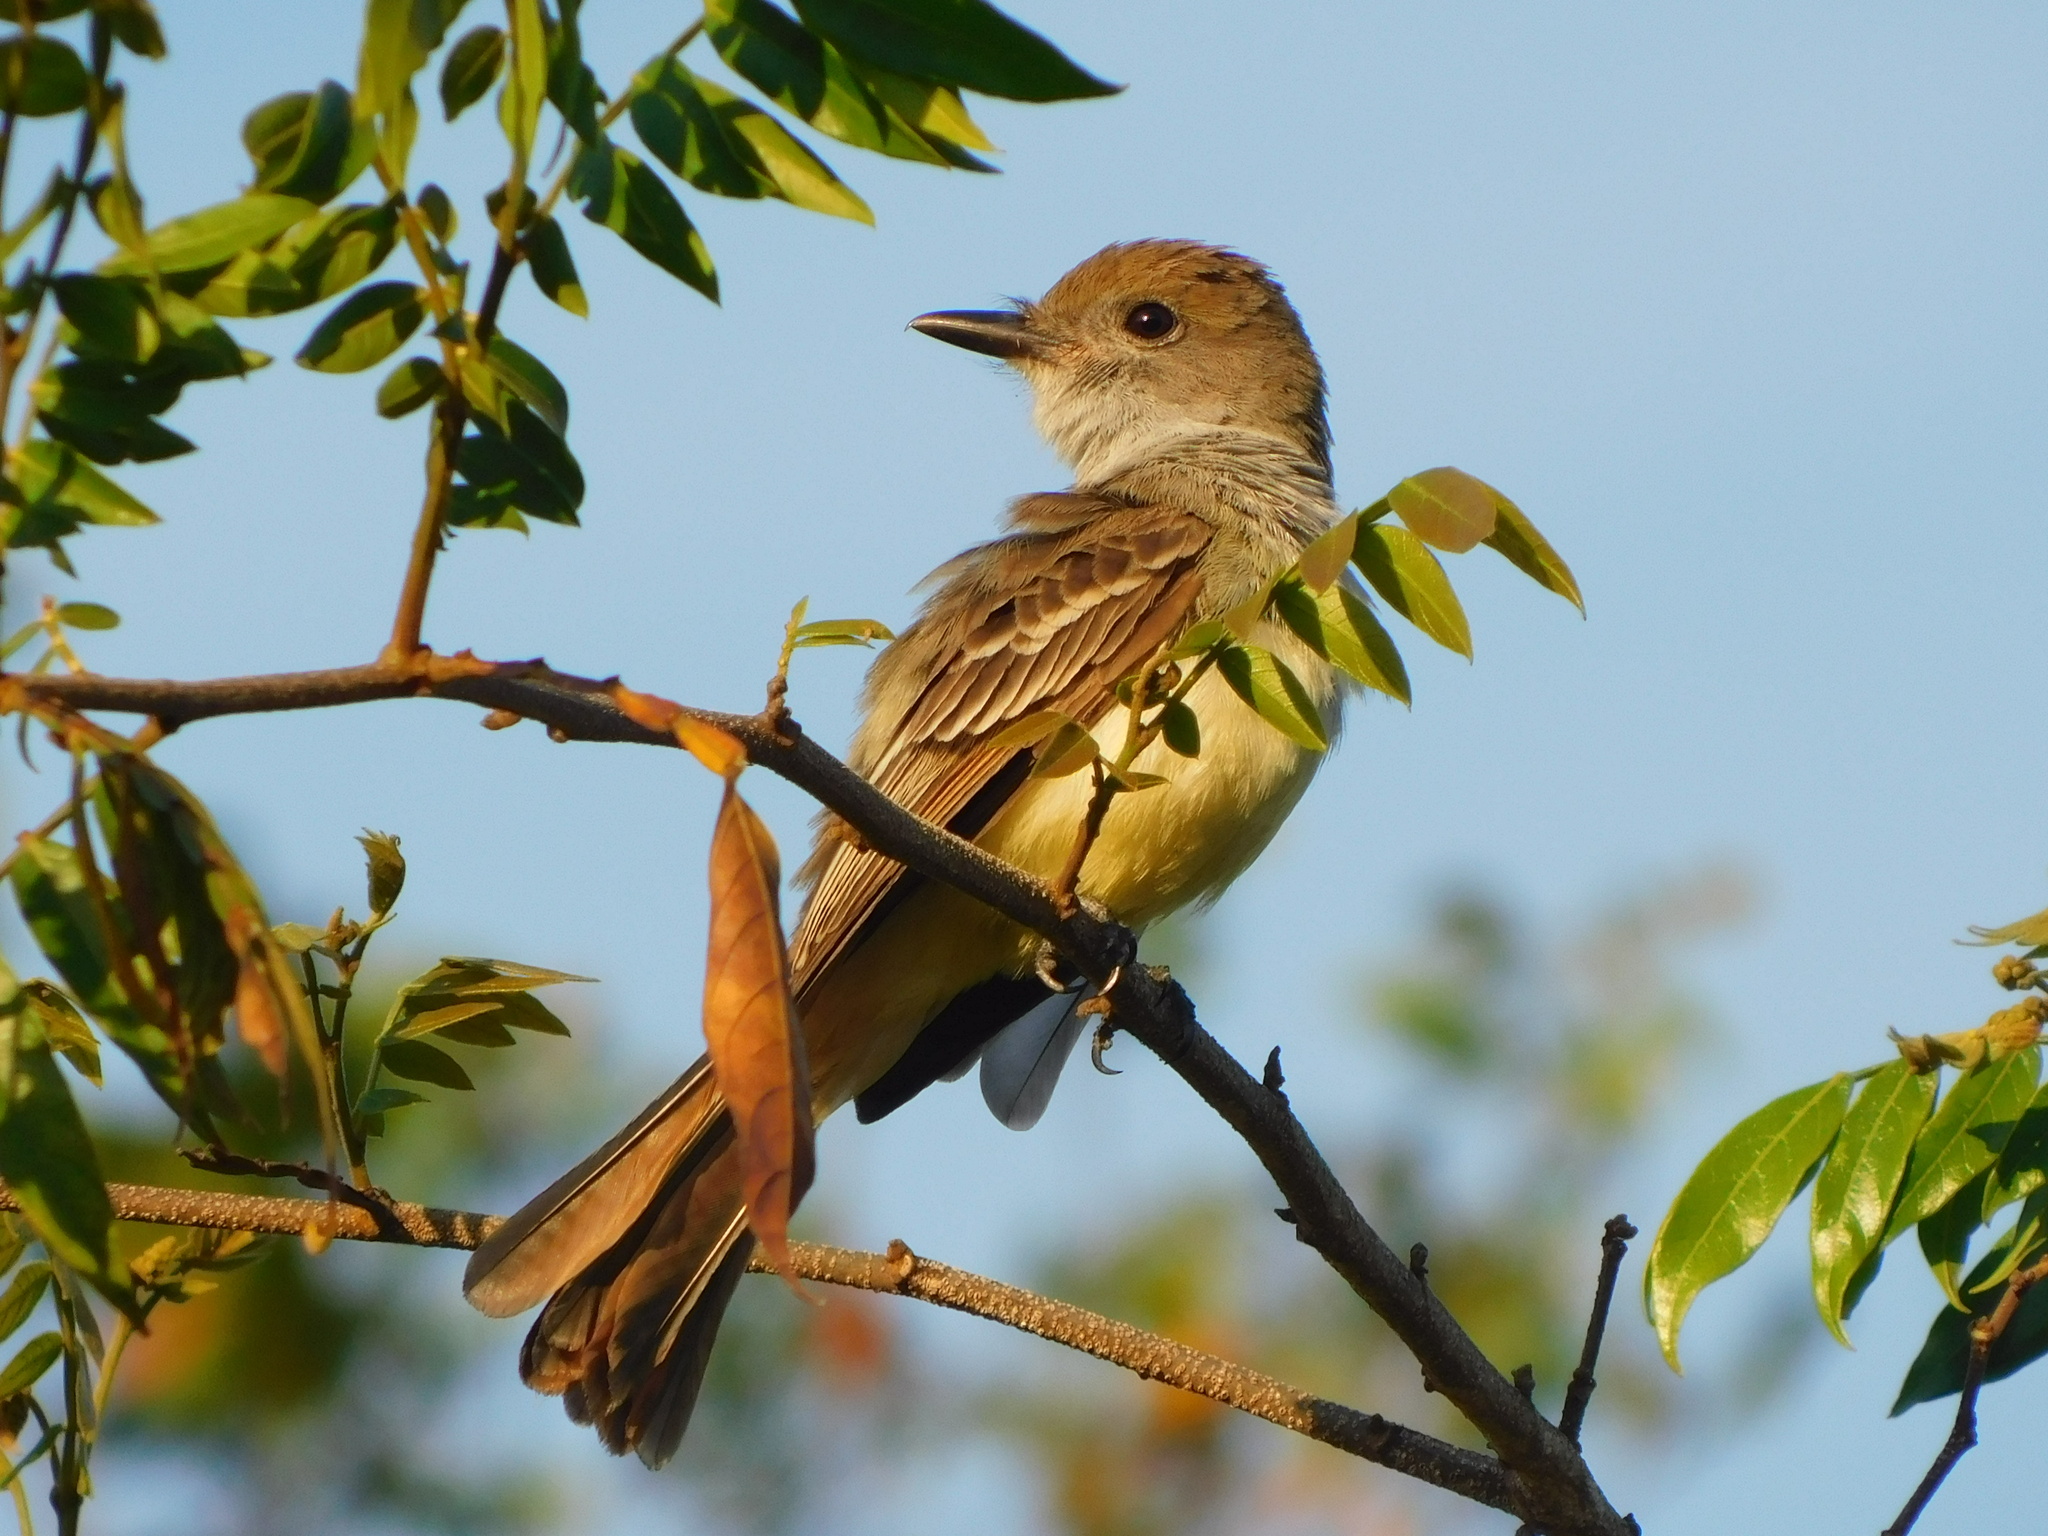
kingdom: Animalia
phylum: Chordata
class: Aves
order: Passeriformes
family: Tyrannidae
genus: Myiarchus
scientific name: Myiarchus tyrannulus
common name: Brown-crested flycatcher
